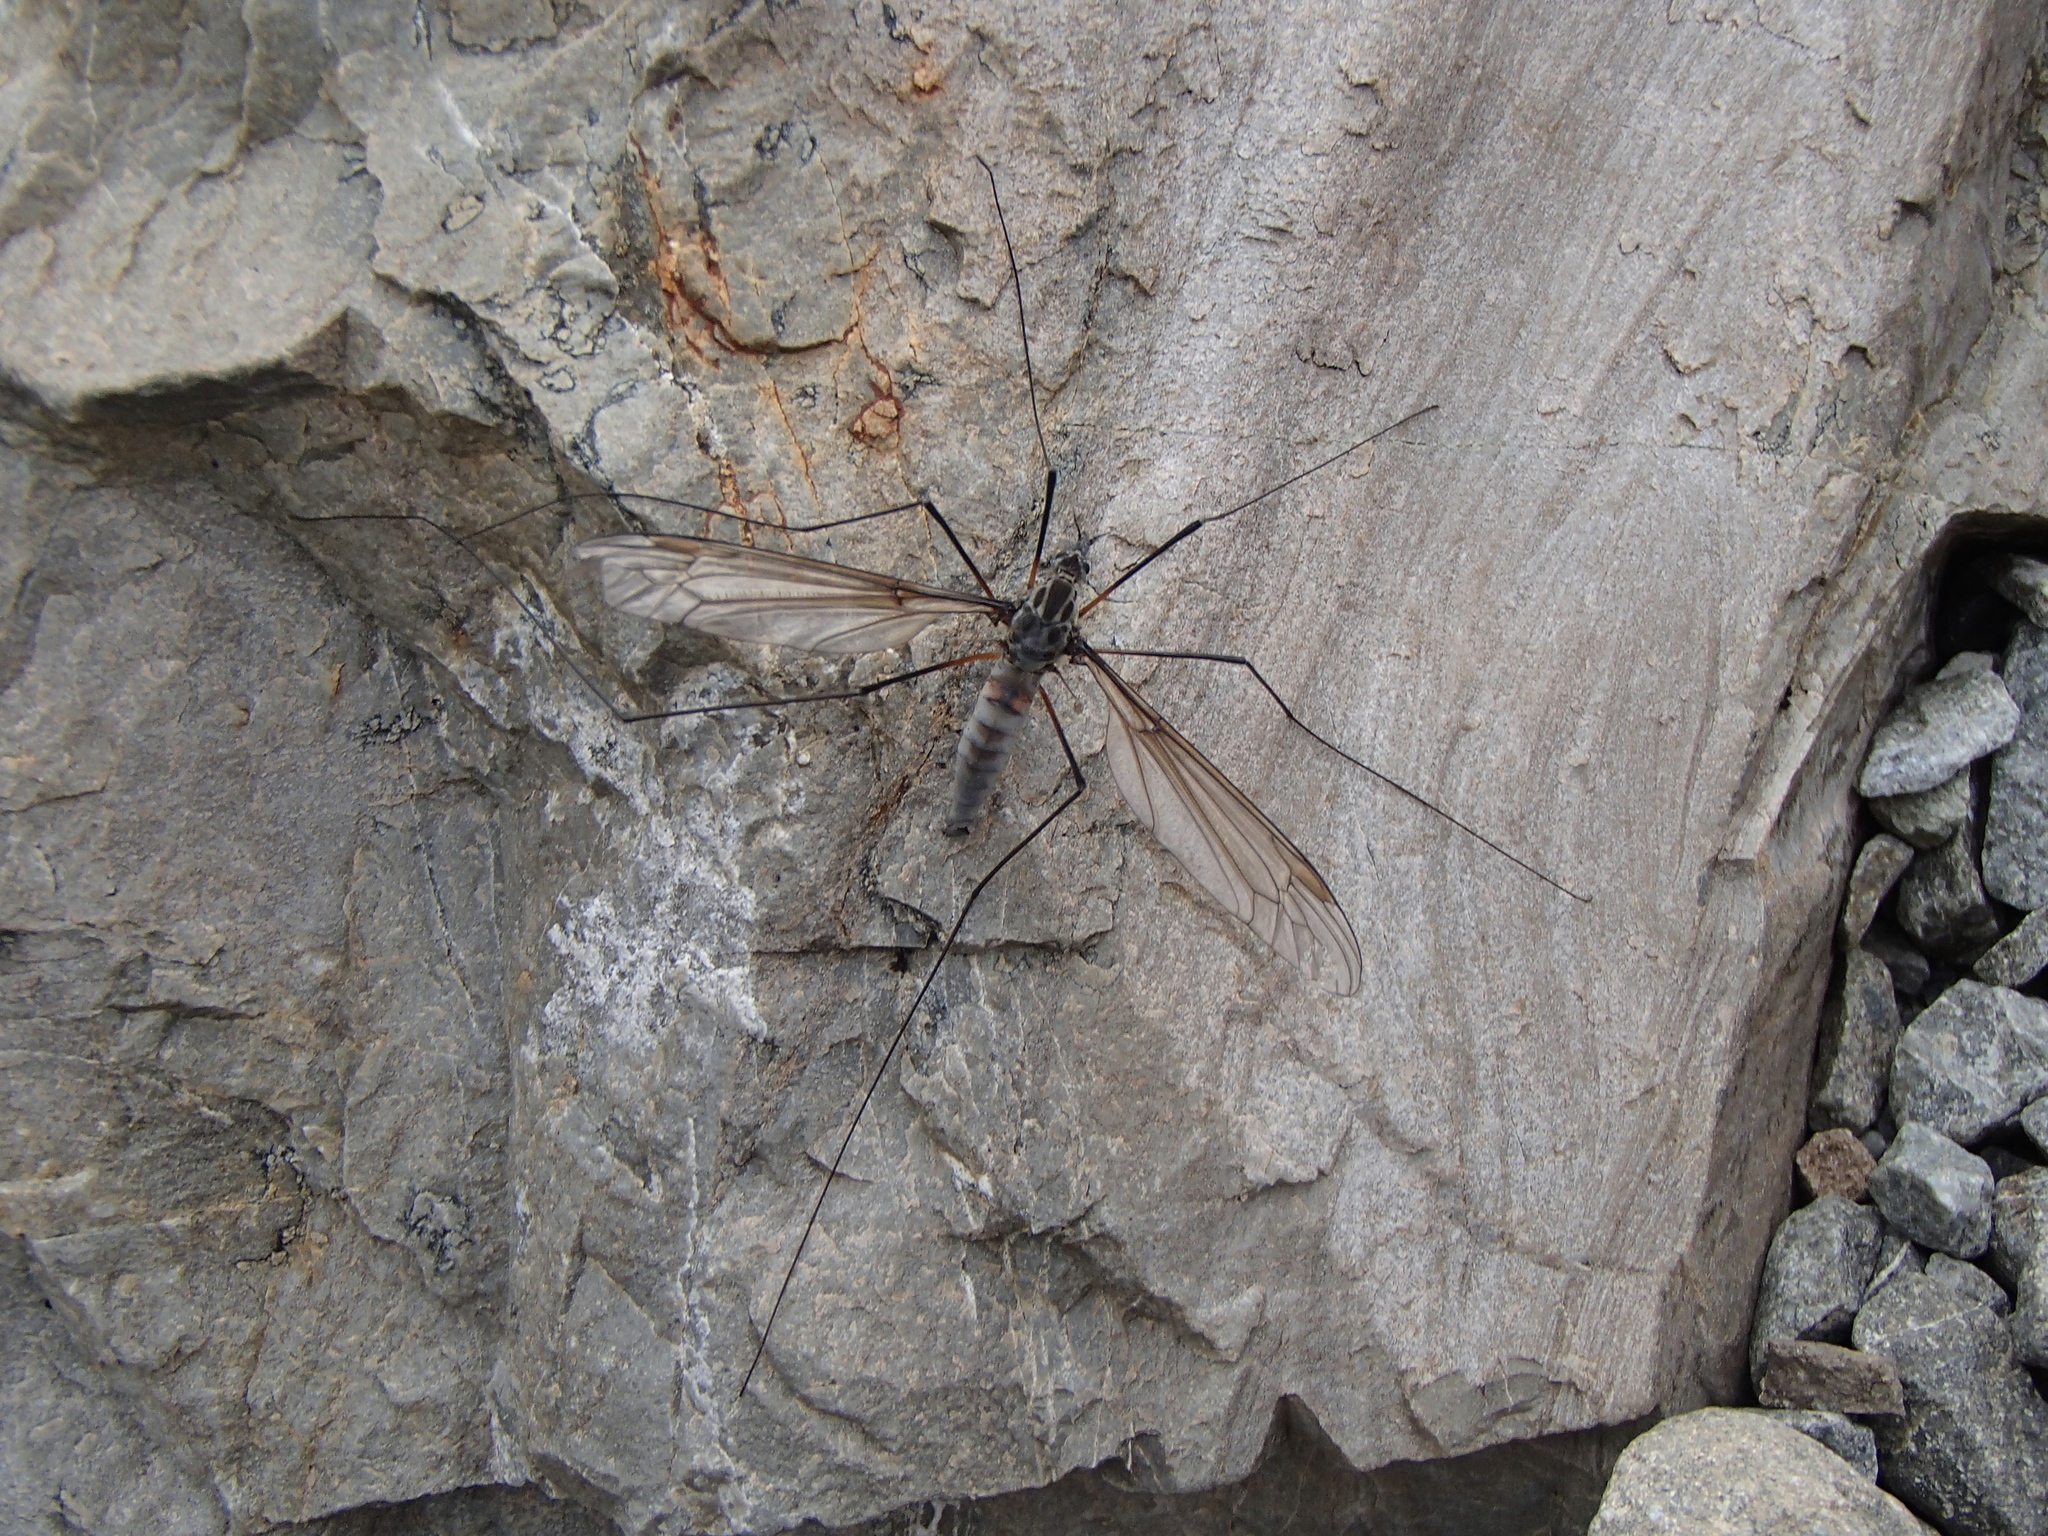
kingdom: Animalia
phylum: Arthropoda
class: Insecta
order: Diptera
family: Tipulidae
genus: Leptotarsus
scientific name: Leptotarsus montanus
